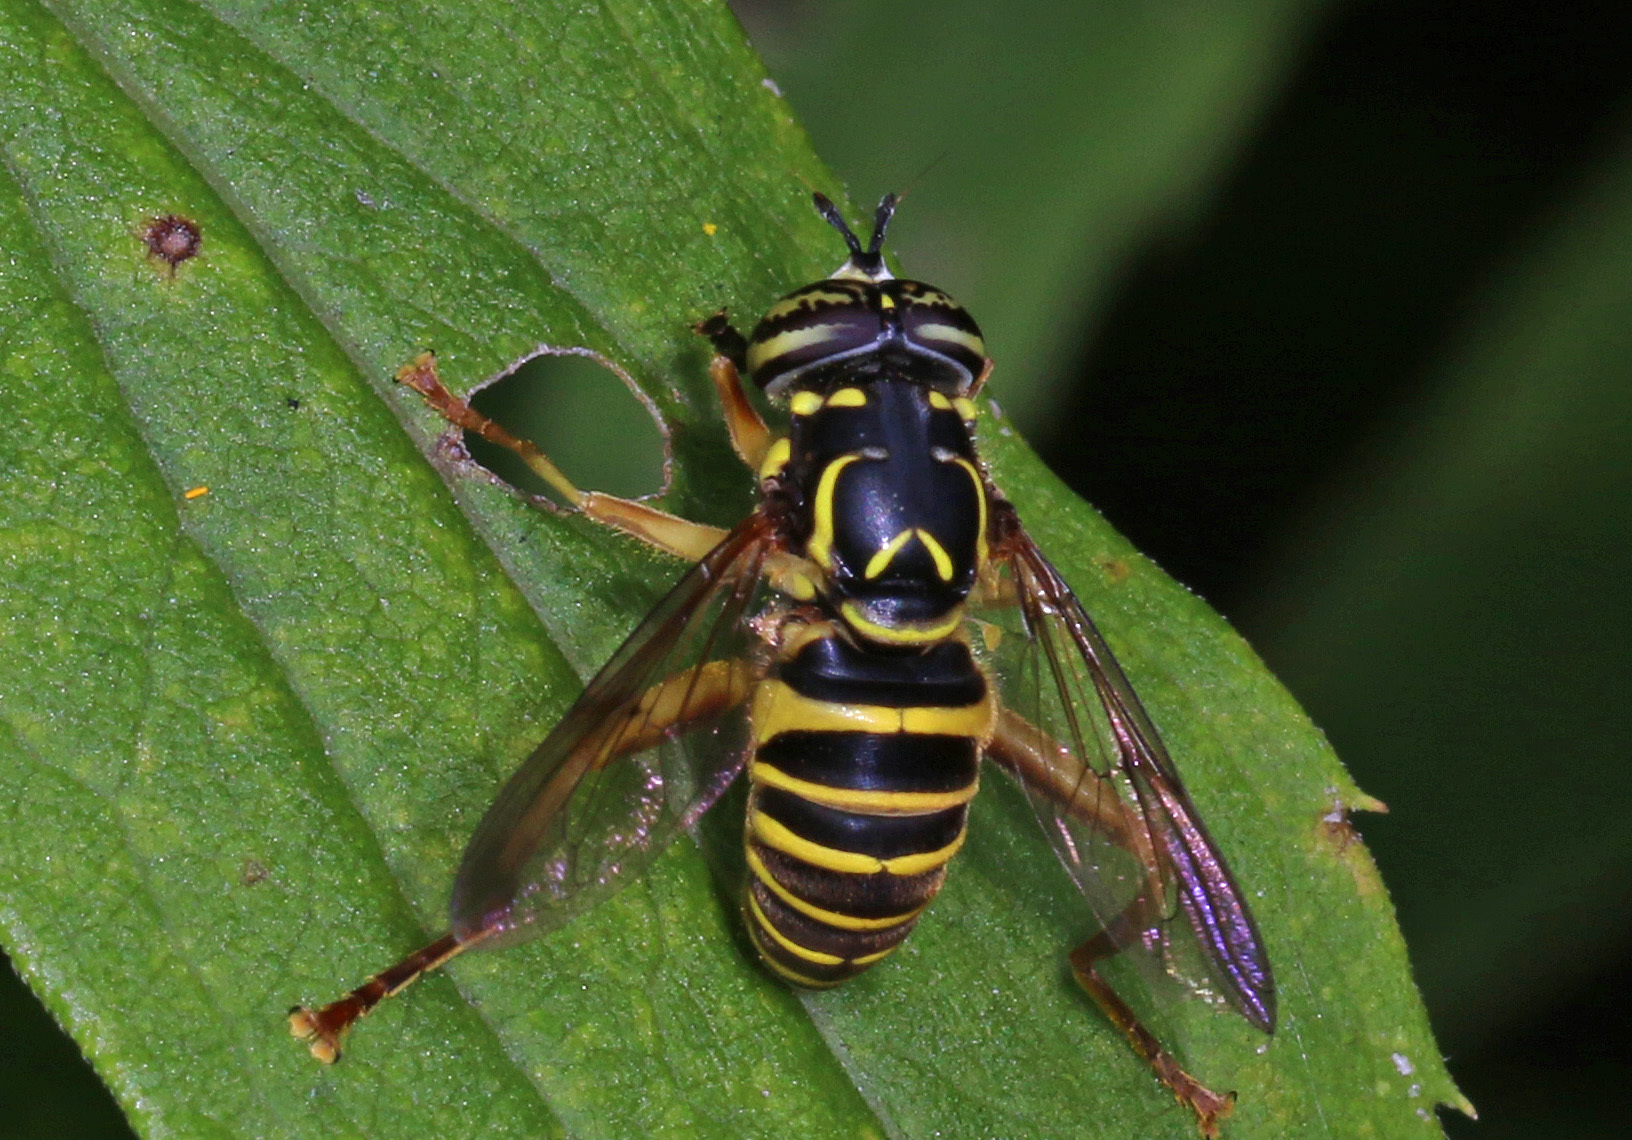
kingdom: Animalia
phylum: Arthropoda
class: Insecta
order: Diptera
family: Syrphidae
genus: Spilomyia
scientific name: Spilomyia longicornis
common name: Eastern hornet fly
